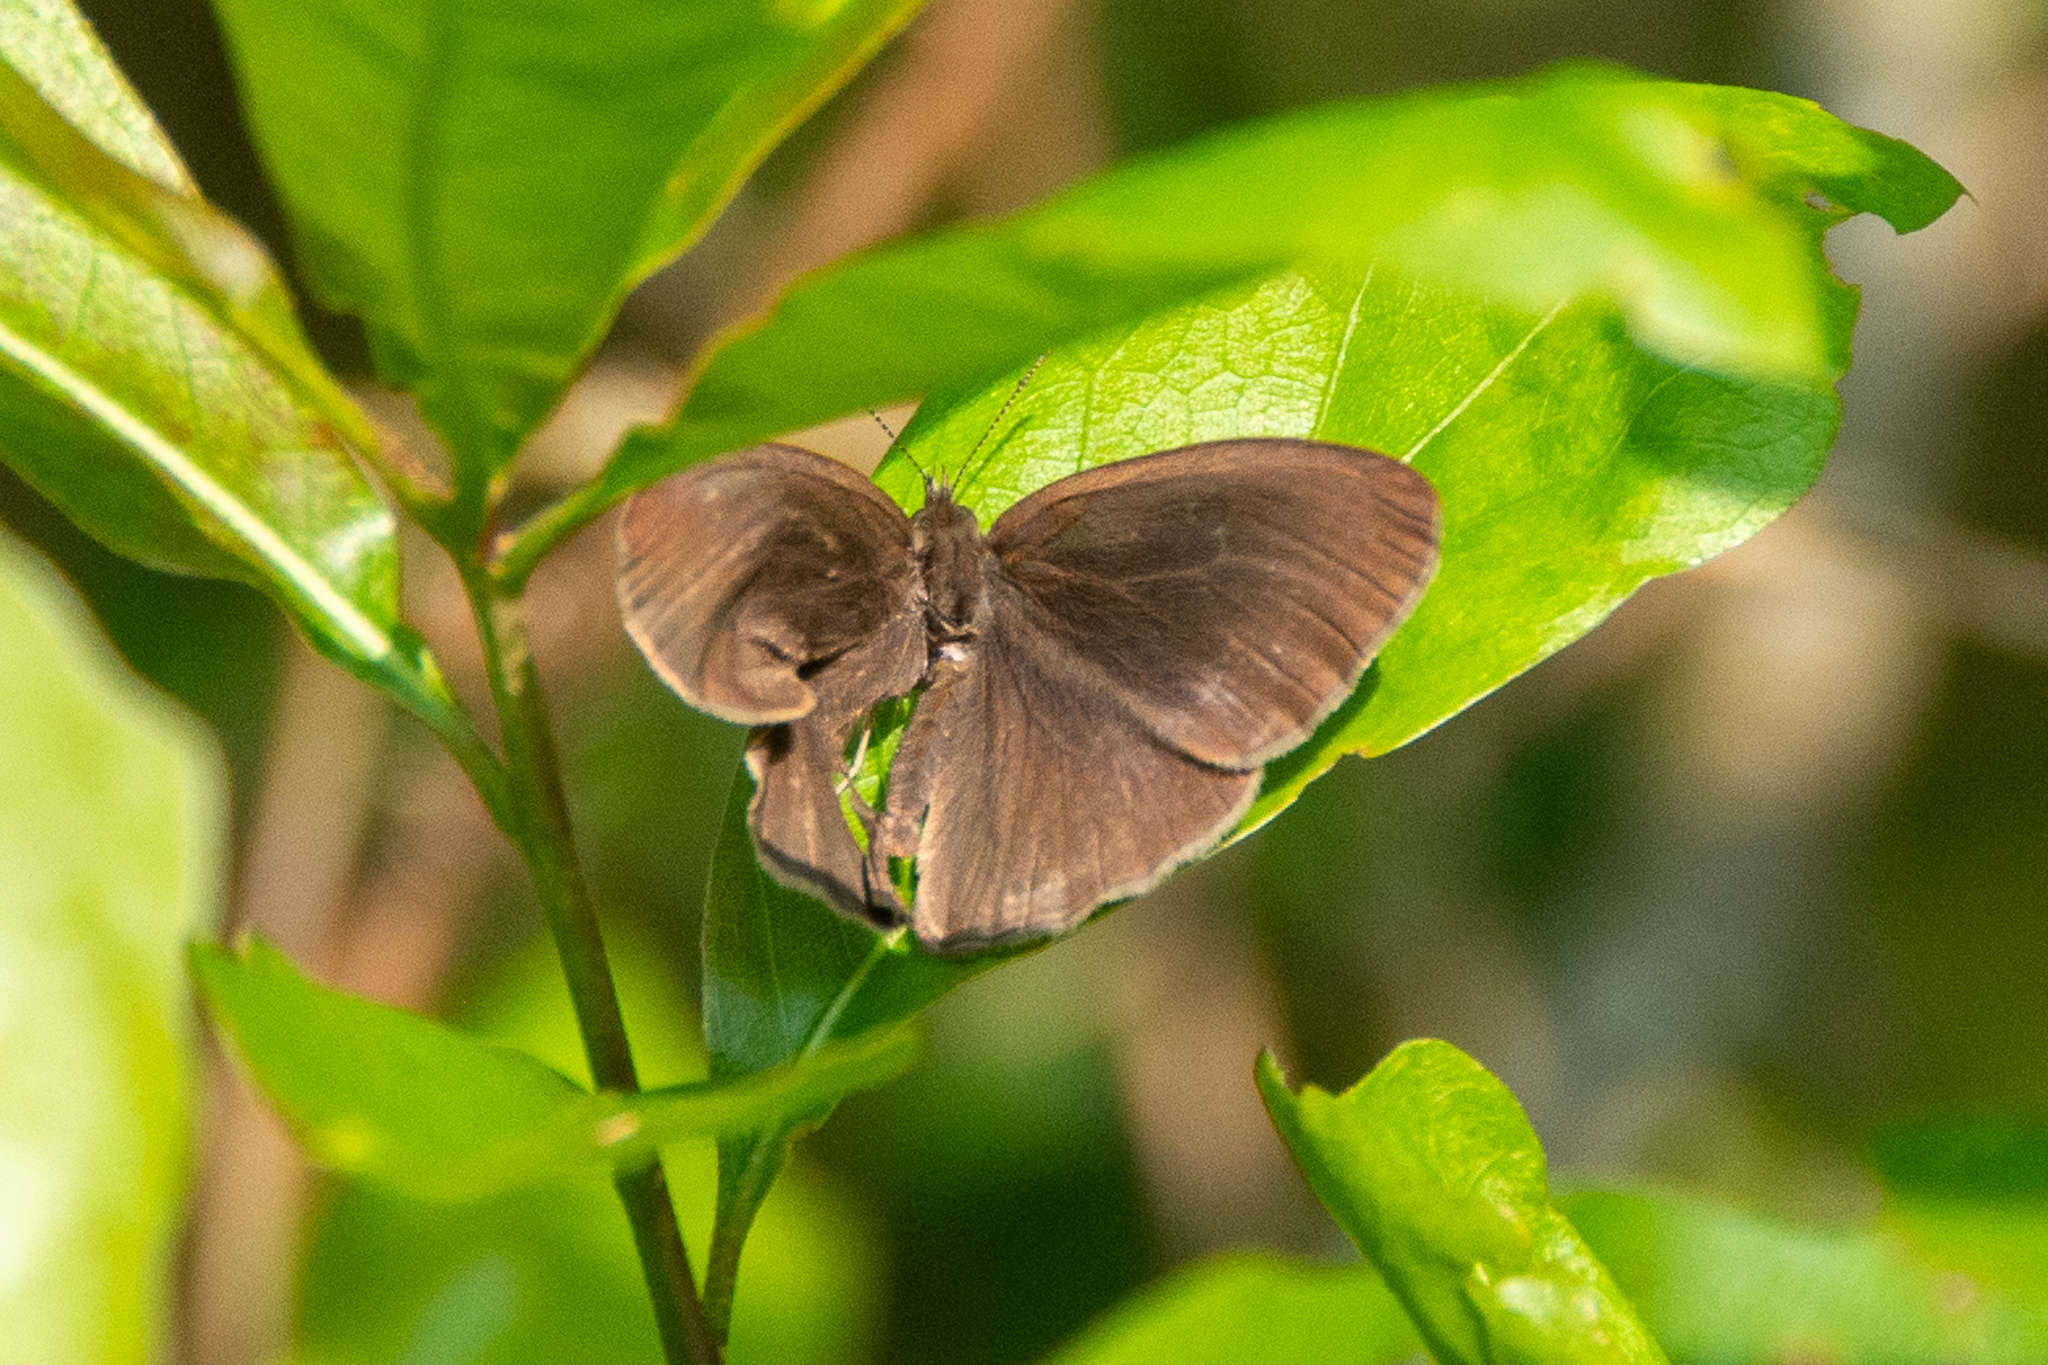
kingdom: Animalia
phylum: Arthropoda
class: Insecta
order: Lepidoptera
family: Nymphalidae
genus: Hermeuptychia
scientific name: Hermeuptychia hermes
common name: Hermes satyr
